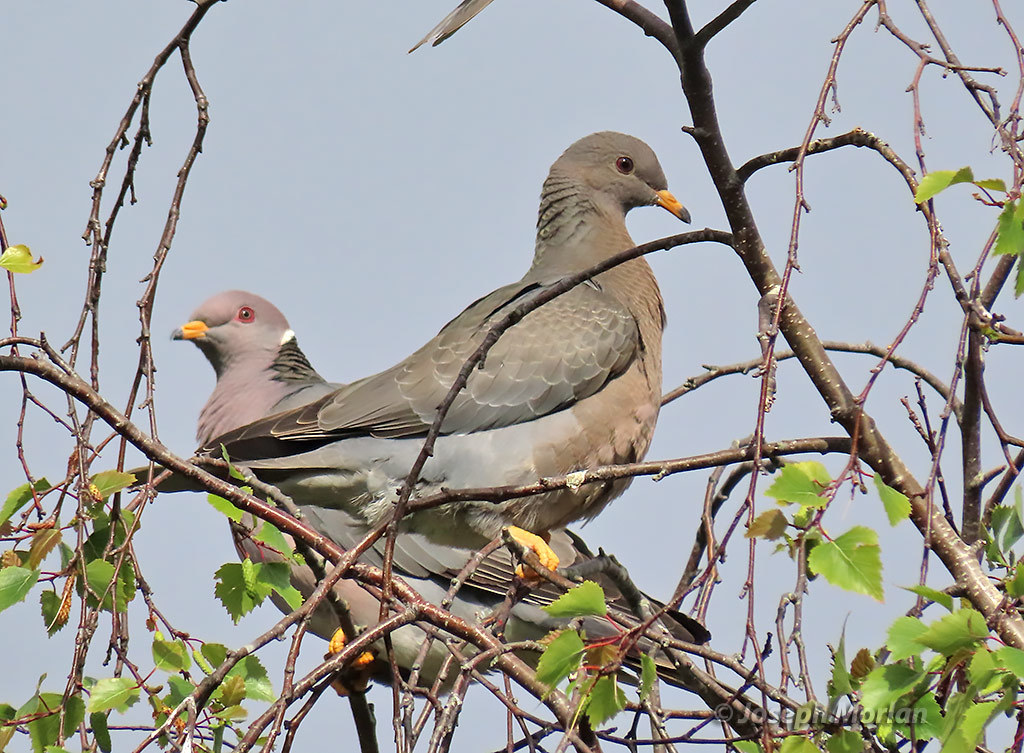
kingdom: Animalia
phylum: Chordata
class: Aves
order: Columbiformes
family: Columbidae
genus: Patagioenas
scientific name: Patagioenas fasciata
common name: Band-tailed pigeon
